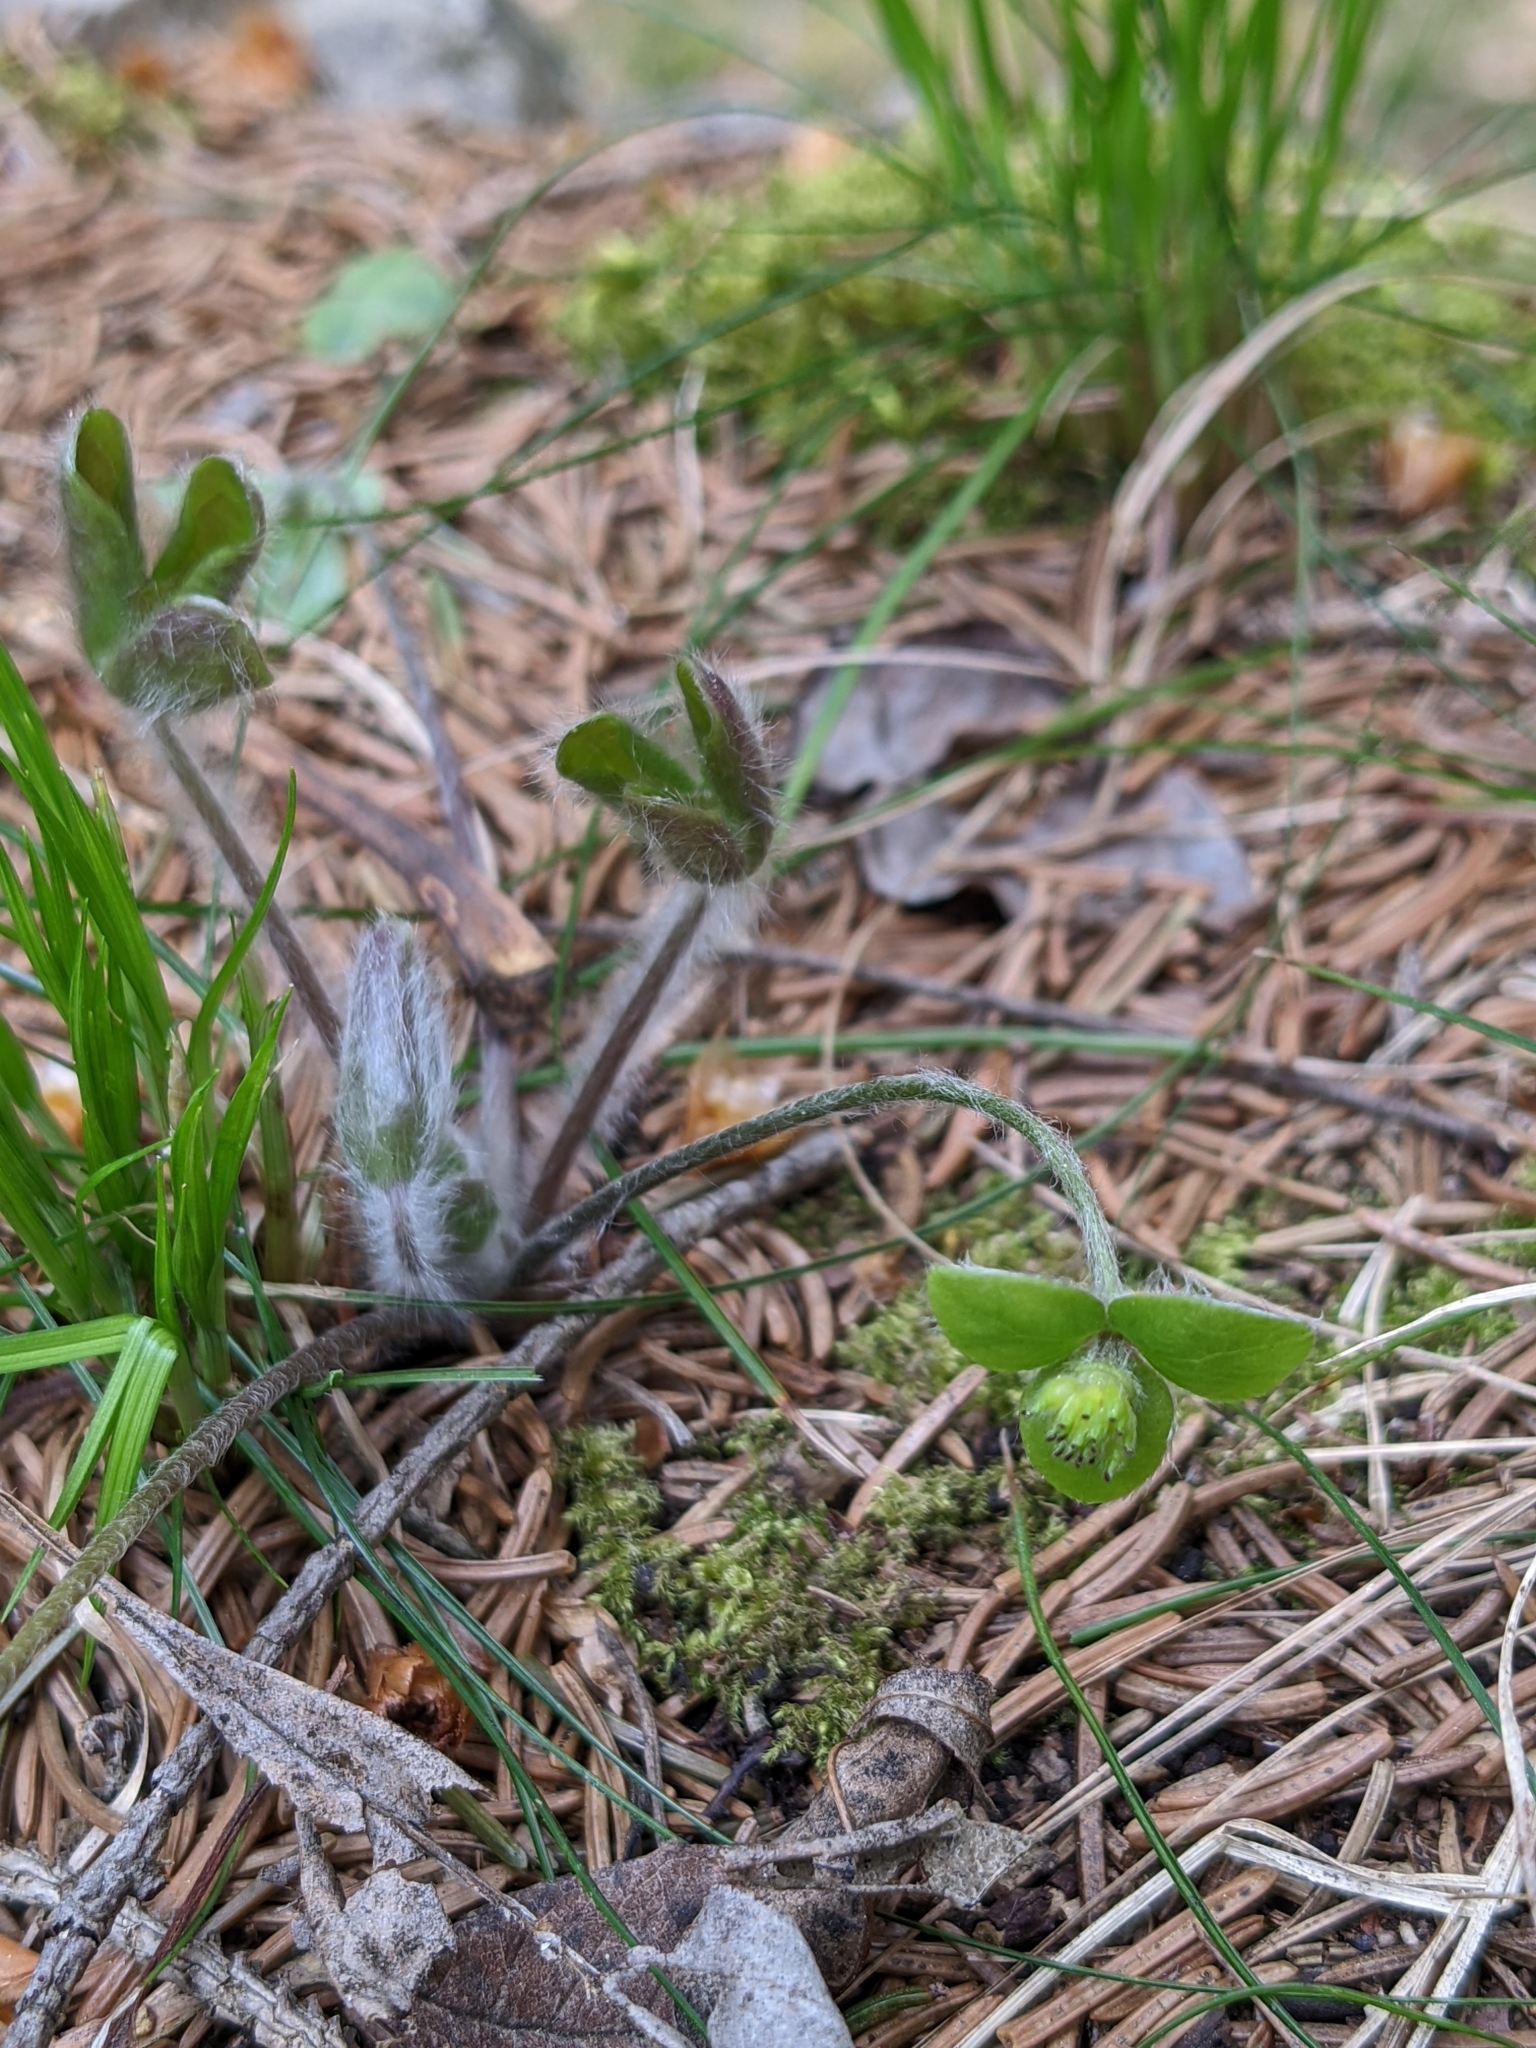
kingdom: Plantae
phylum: Tracheophyta
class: Magnoliopsida
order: Ranunculales
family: Ranunculaceae
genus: Hepatica
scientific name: Hepatica nobilis
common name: Liverleaf
